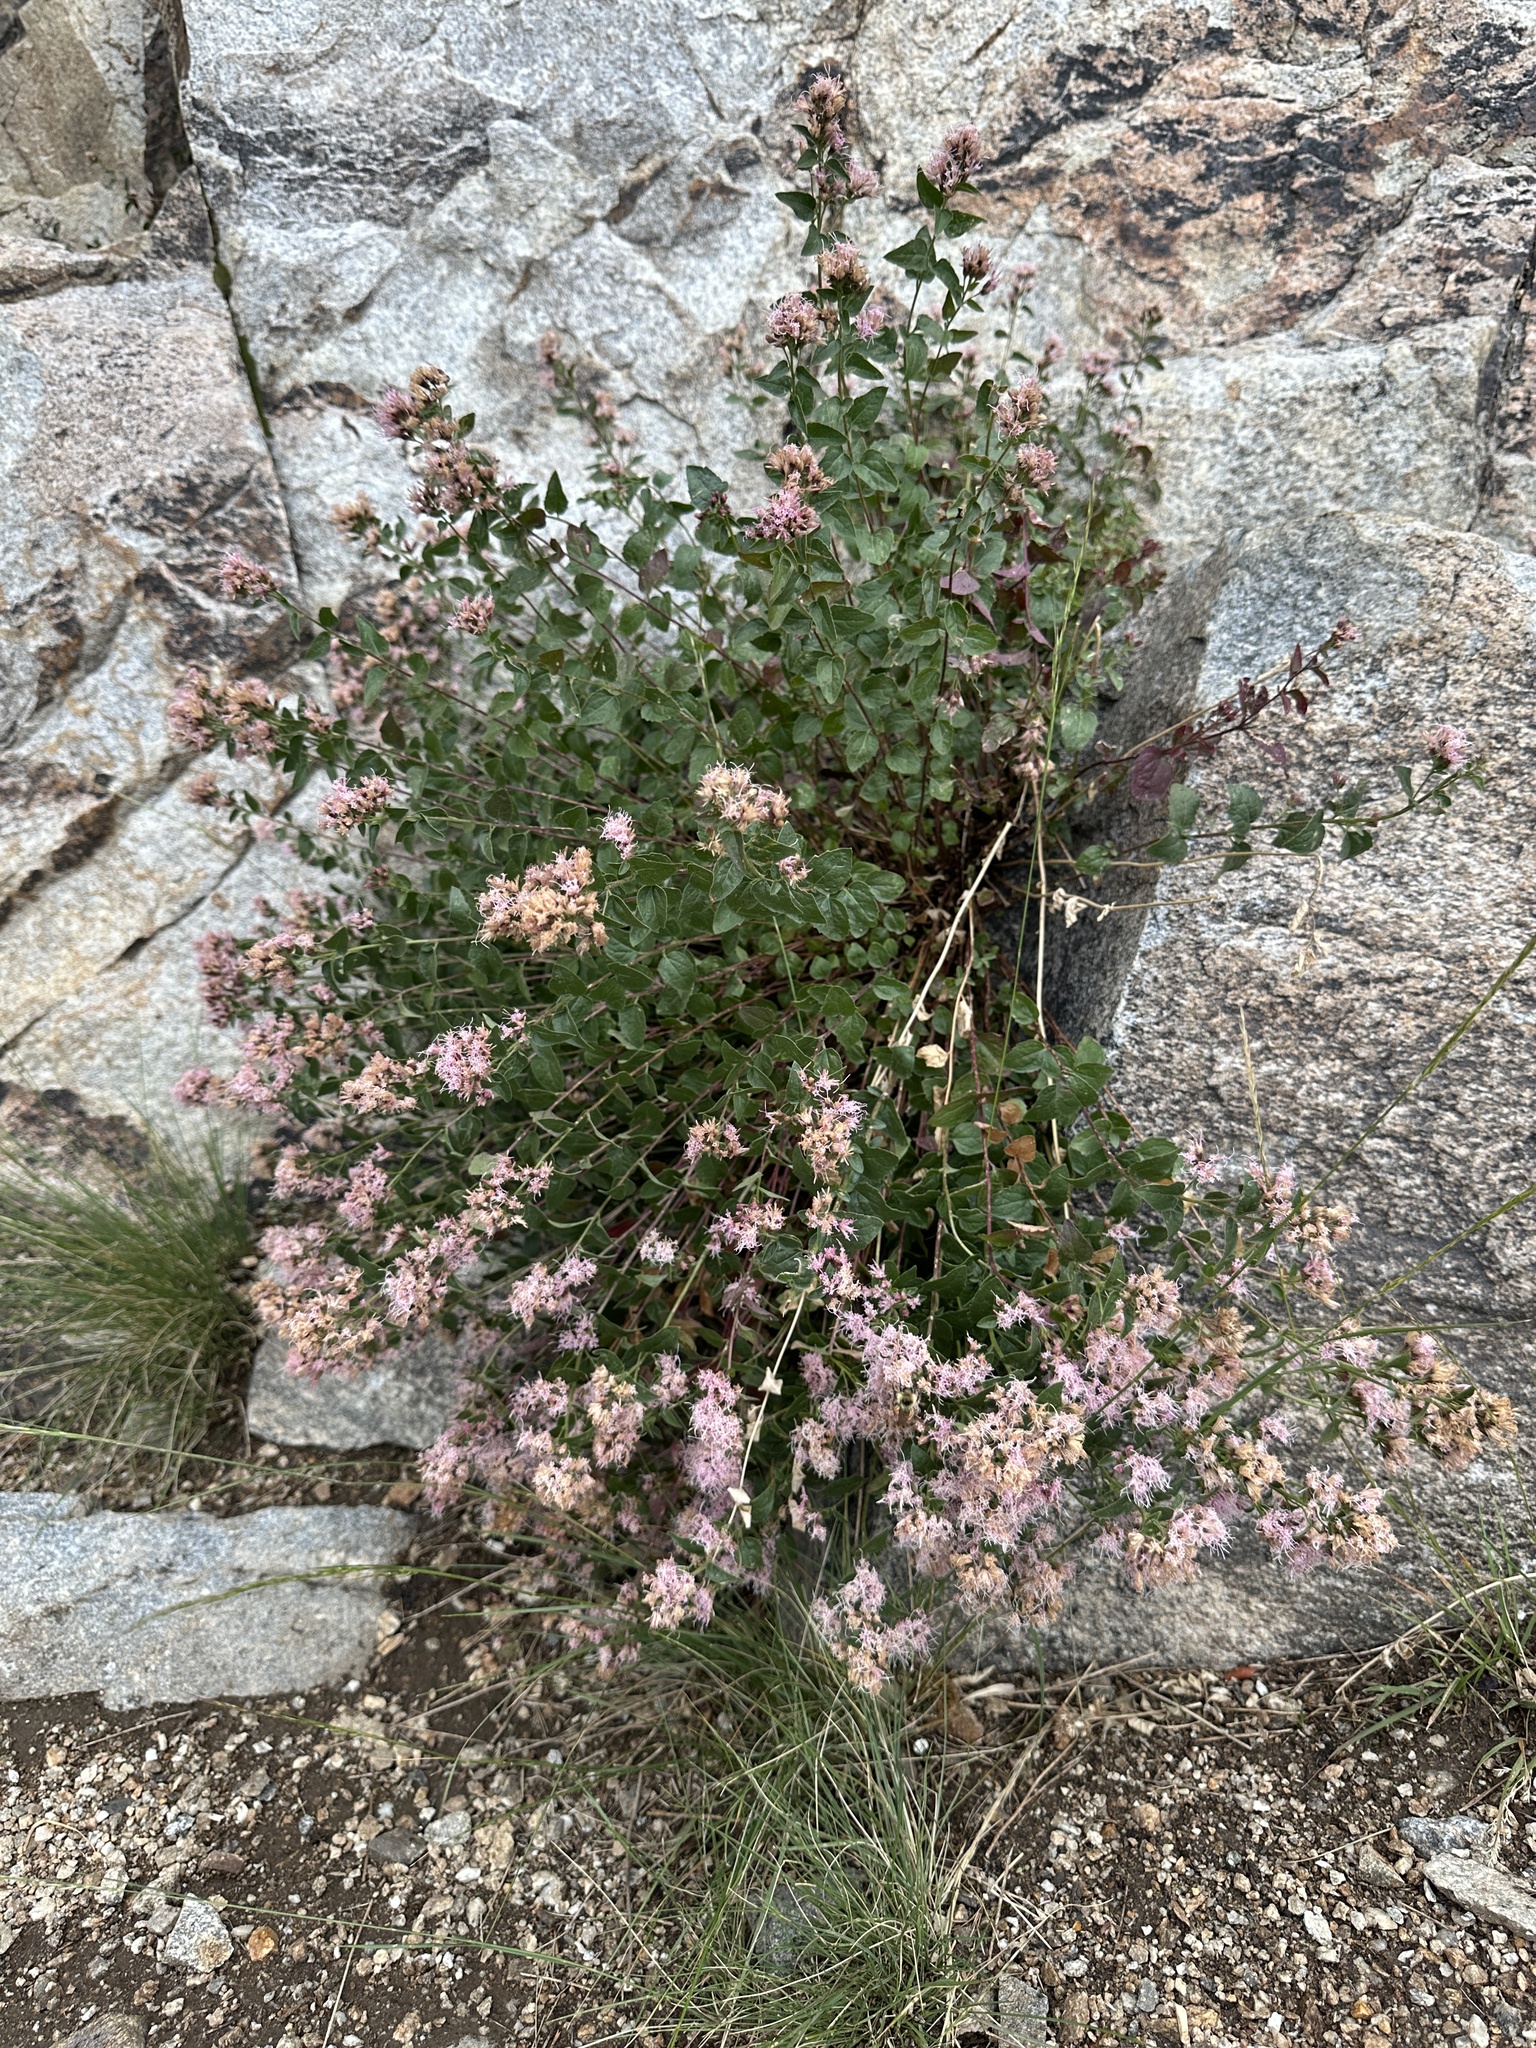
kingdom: Plantae
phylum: Tracheophyta
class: Magnoliopsida
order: Asterales
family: Asteraceae
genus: Ageratina
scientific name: Ageratina occidentalis
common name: Western snakeroot
